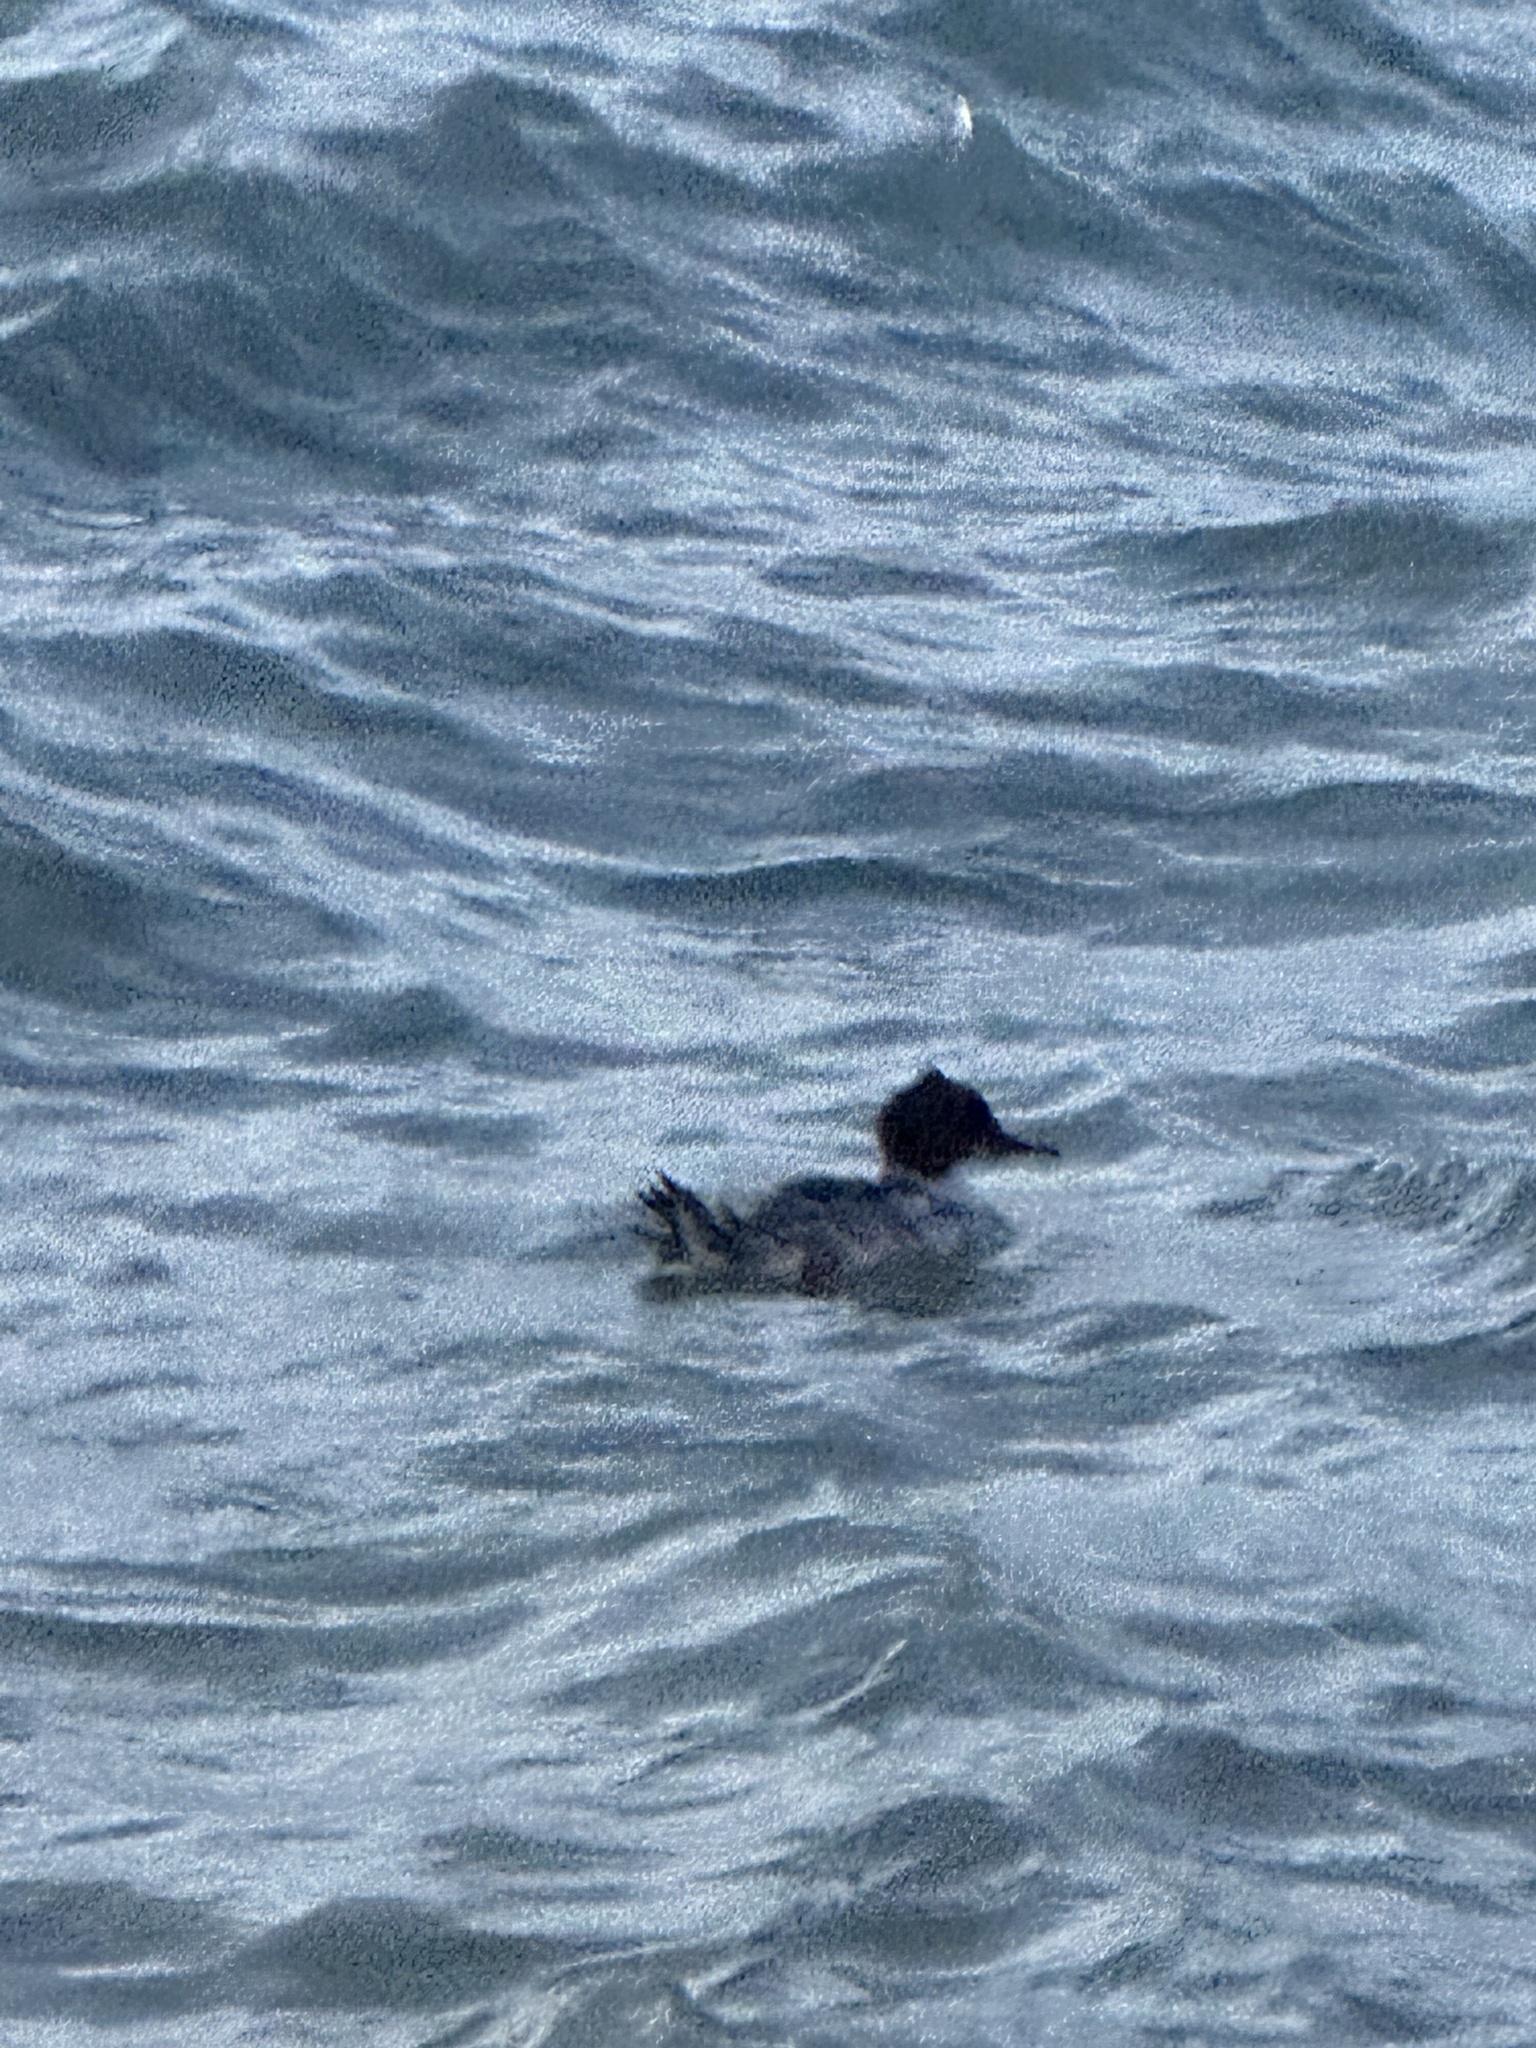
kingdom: Animalia
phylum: Chordata
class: Aves
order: Anseriformes
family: Anatidae
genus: Mergus
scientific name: Mergus merganser
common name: Common merganser
